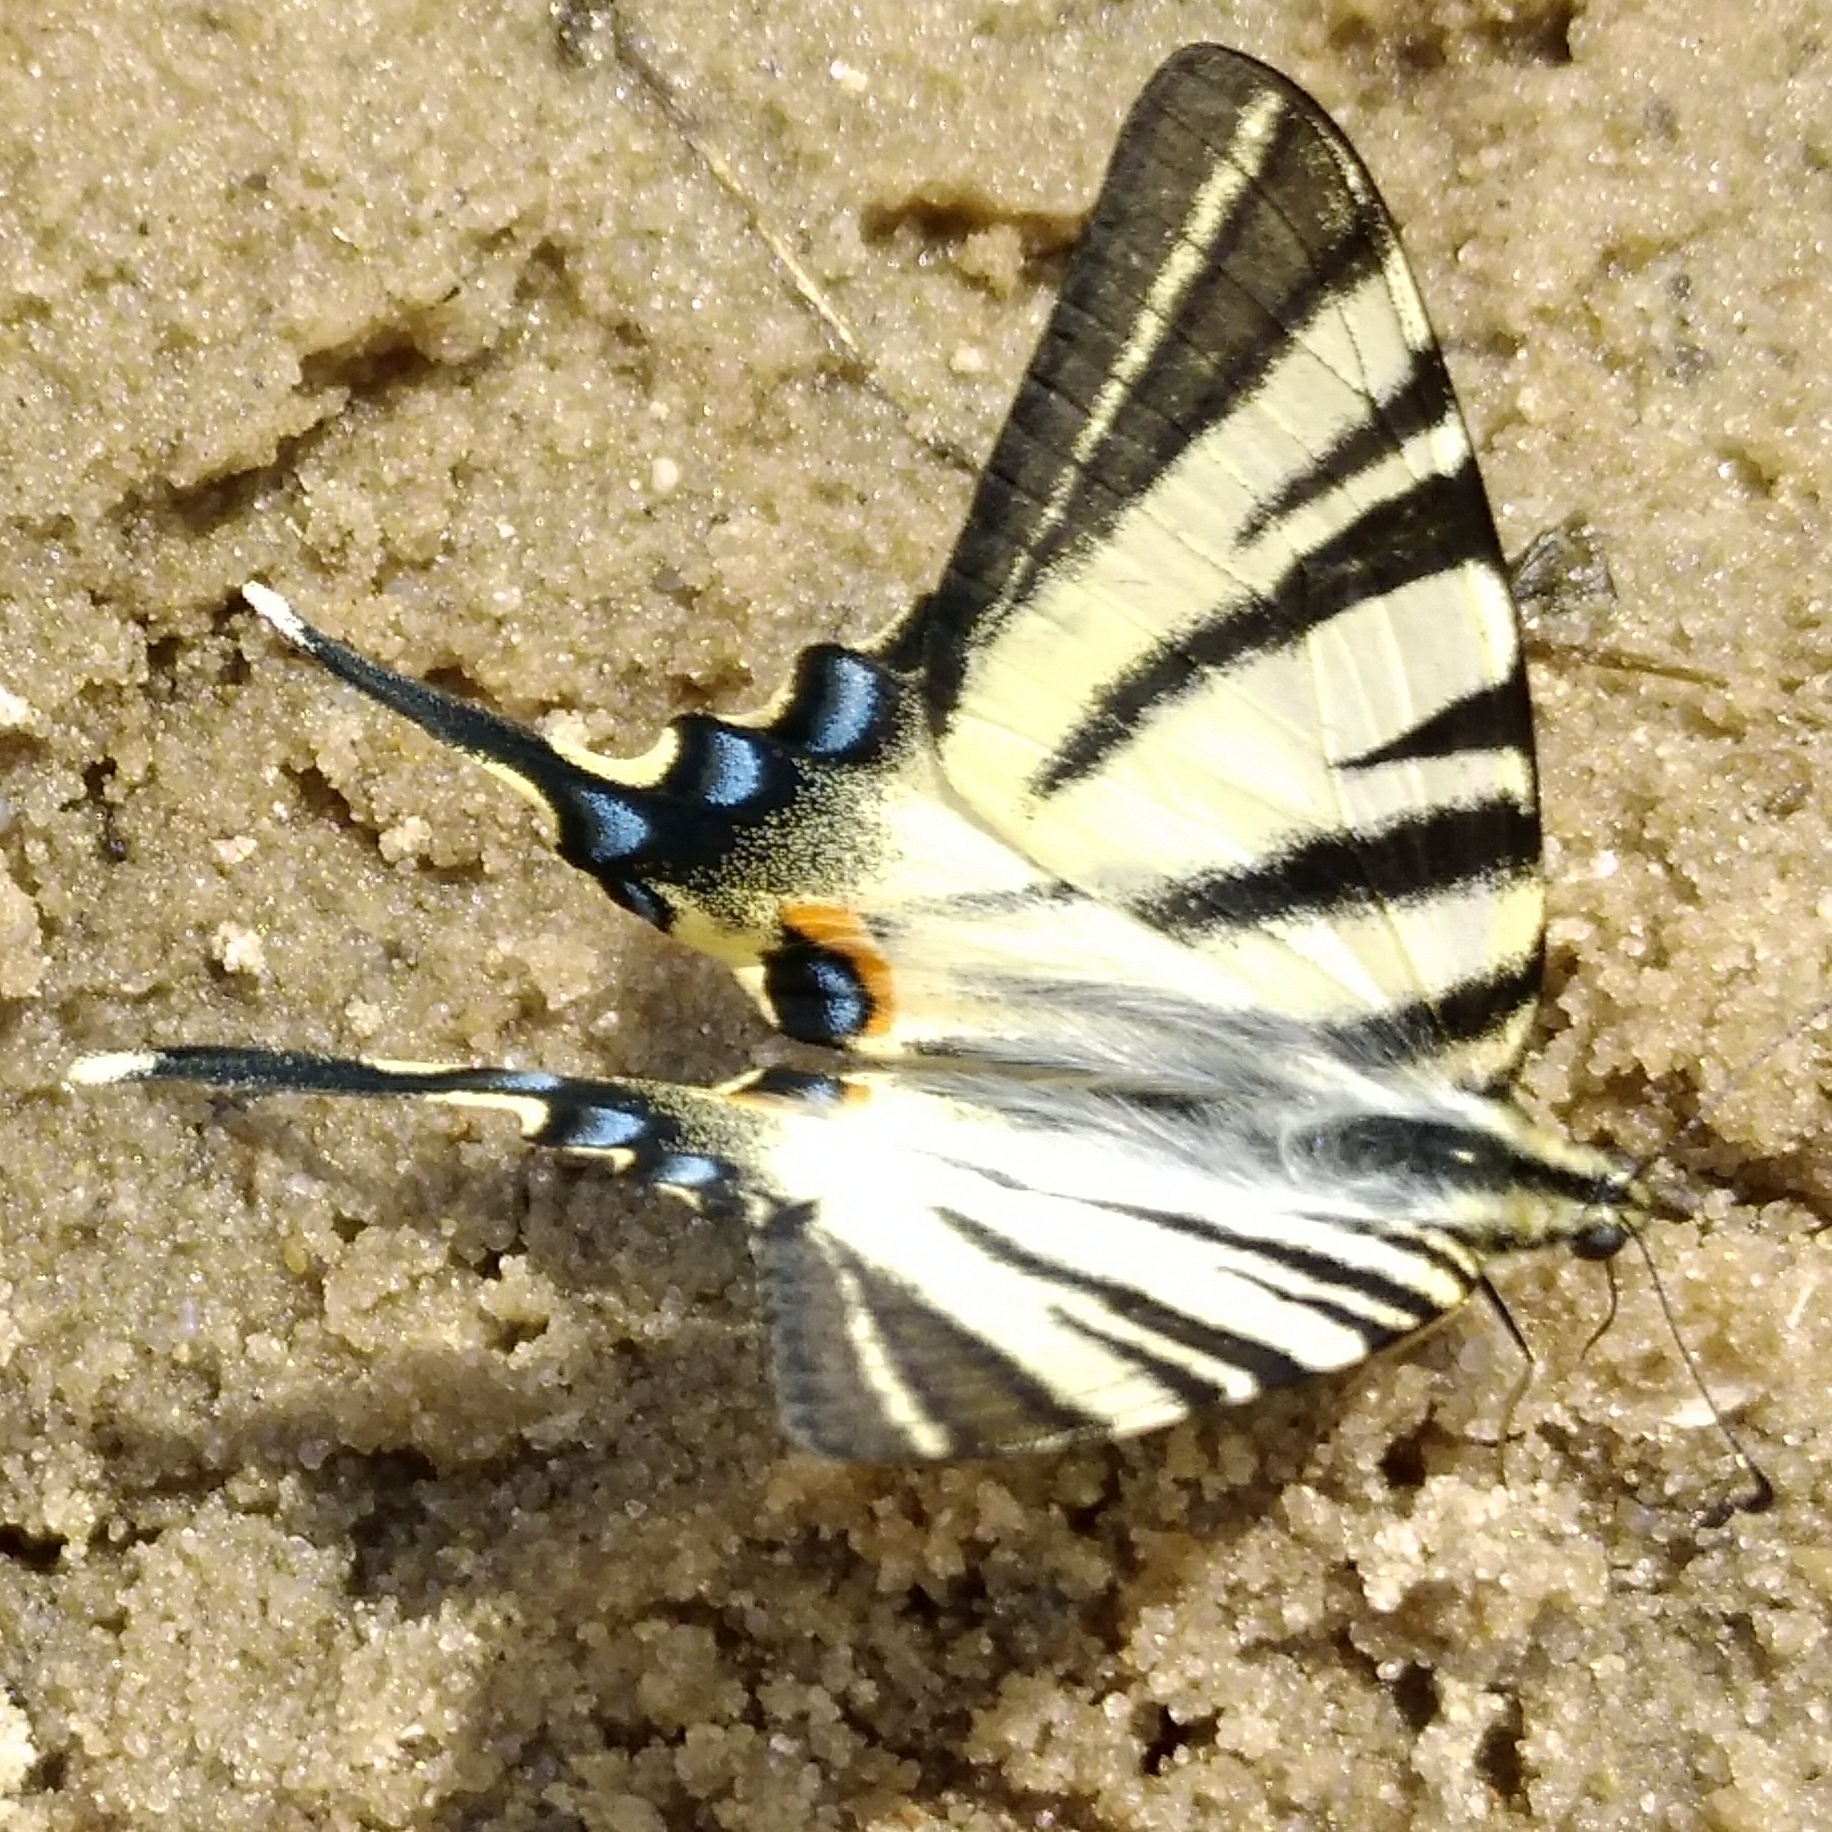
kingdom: Animalia
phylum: Arthropoda
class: Insecta
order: Lepidoptera
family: Papilionidae
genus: Iphiclides
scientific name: Iphiclides podalirius
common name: Scarce swallowtail
